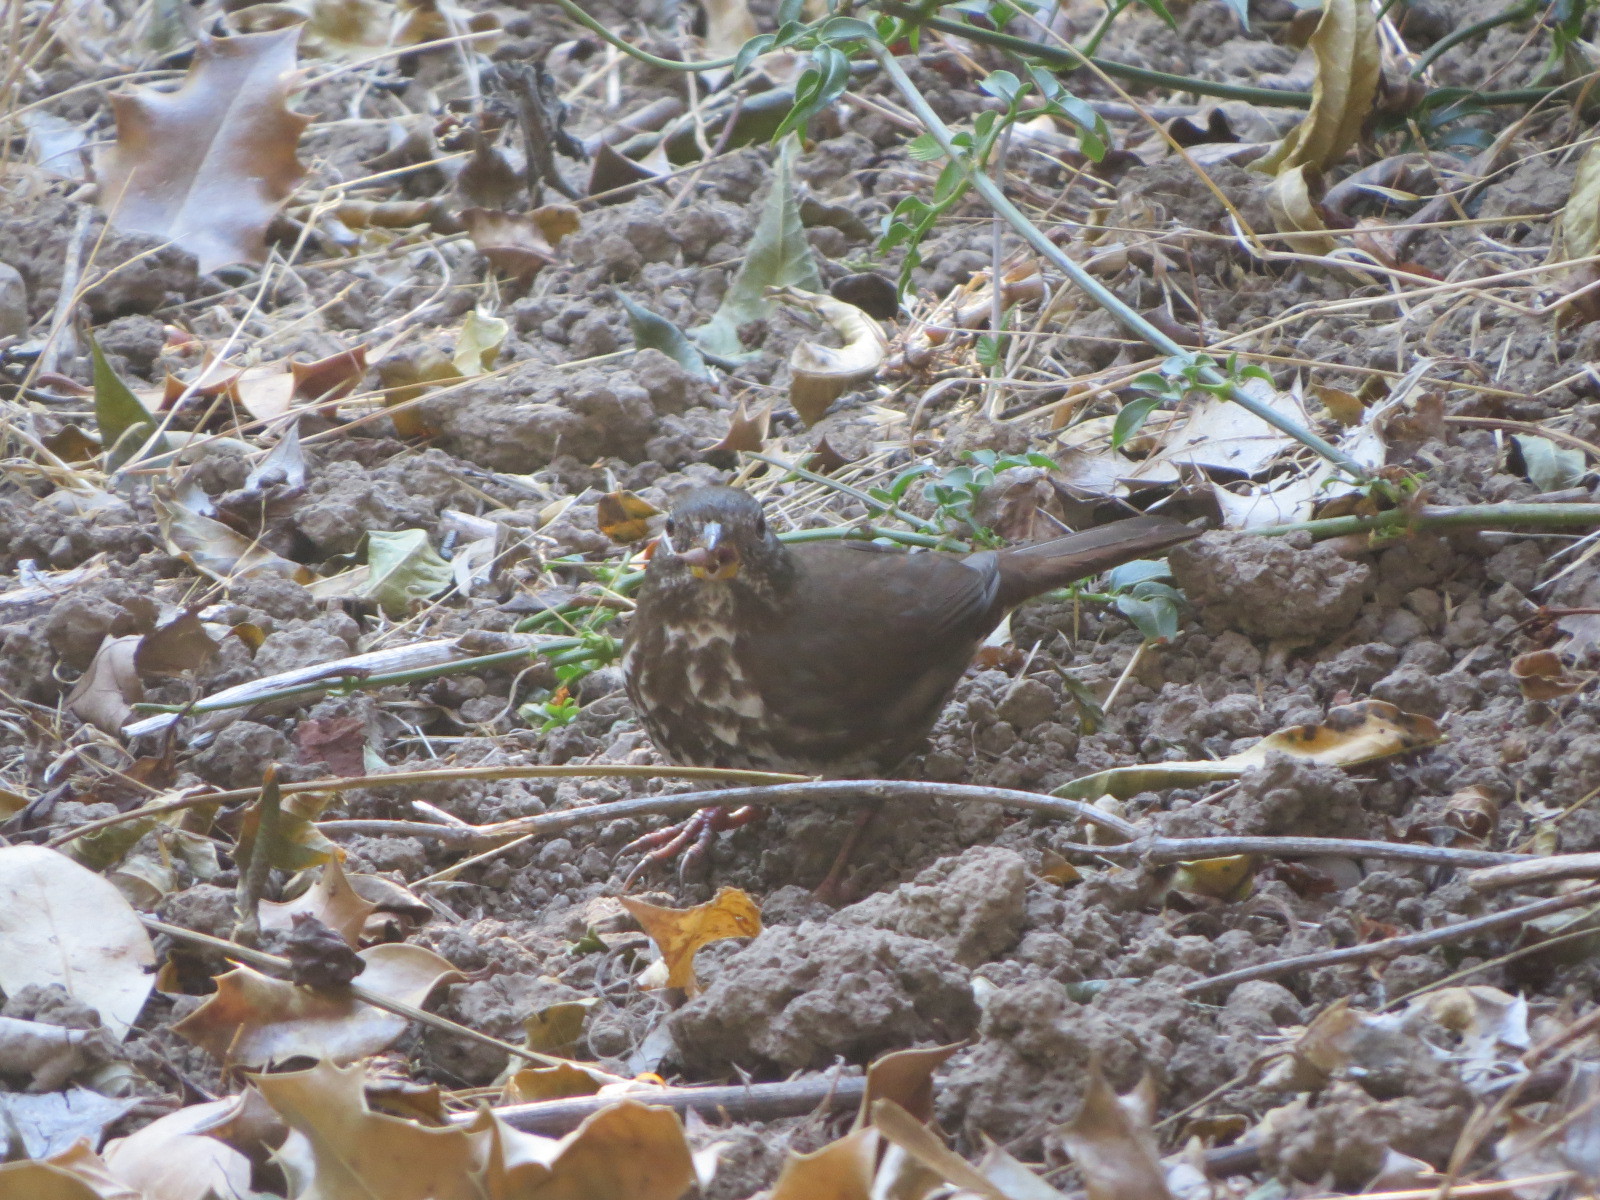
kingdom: Animalia
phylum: Chordata
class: Aves
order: Passeriformes
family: Passerellidae
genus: Passerella
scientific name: Passerella iliaca
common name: Fox sparrow
